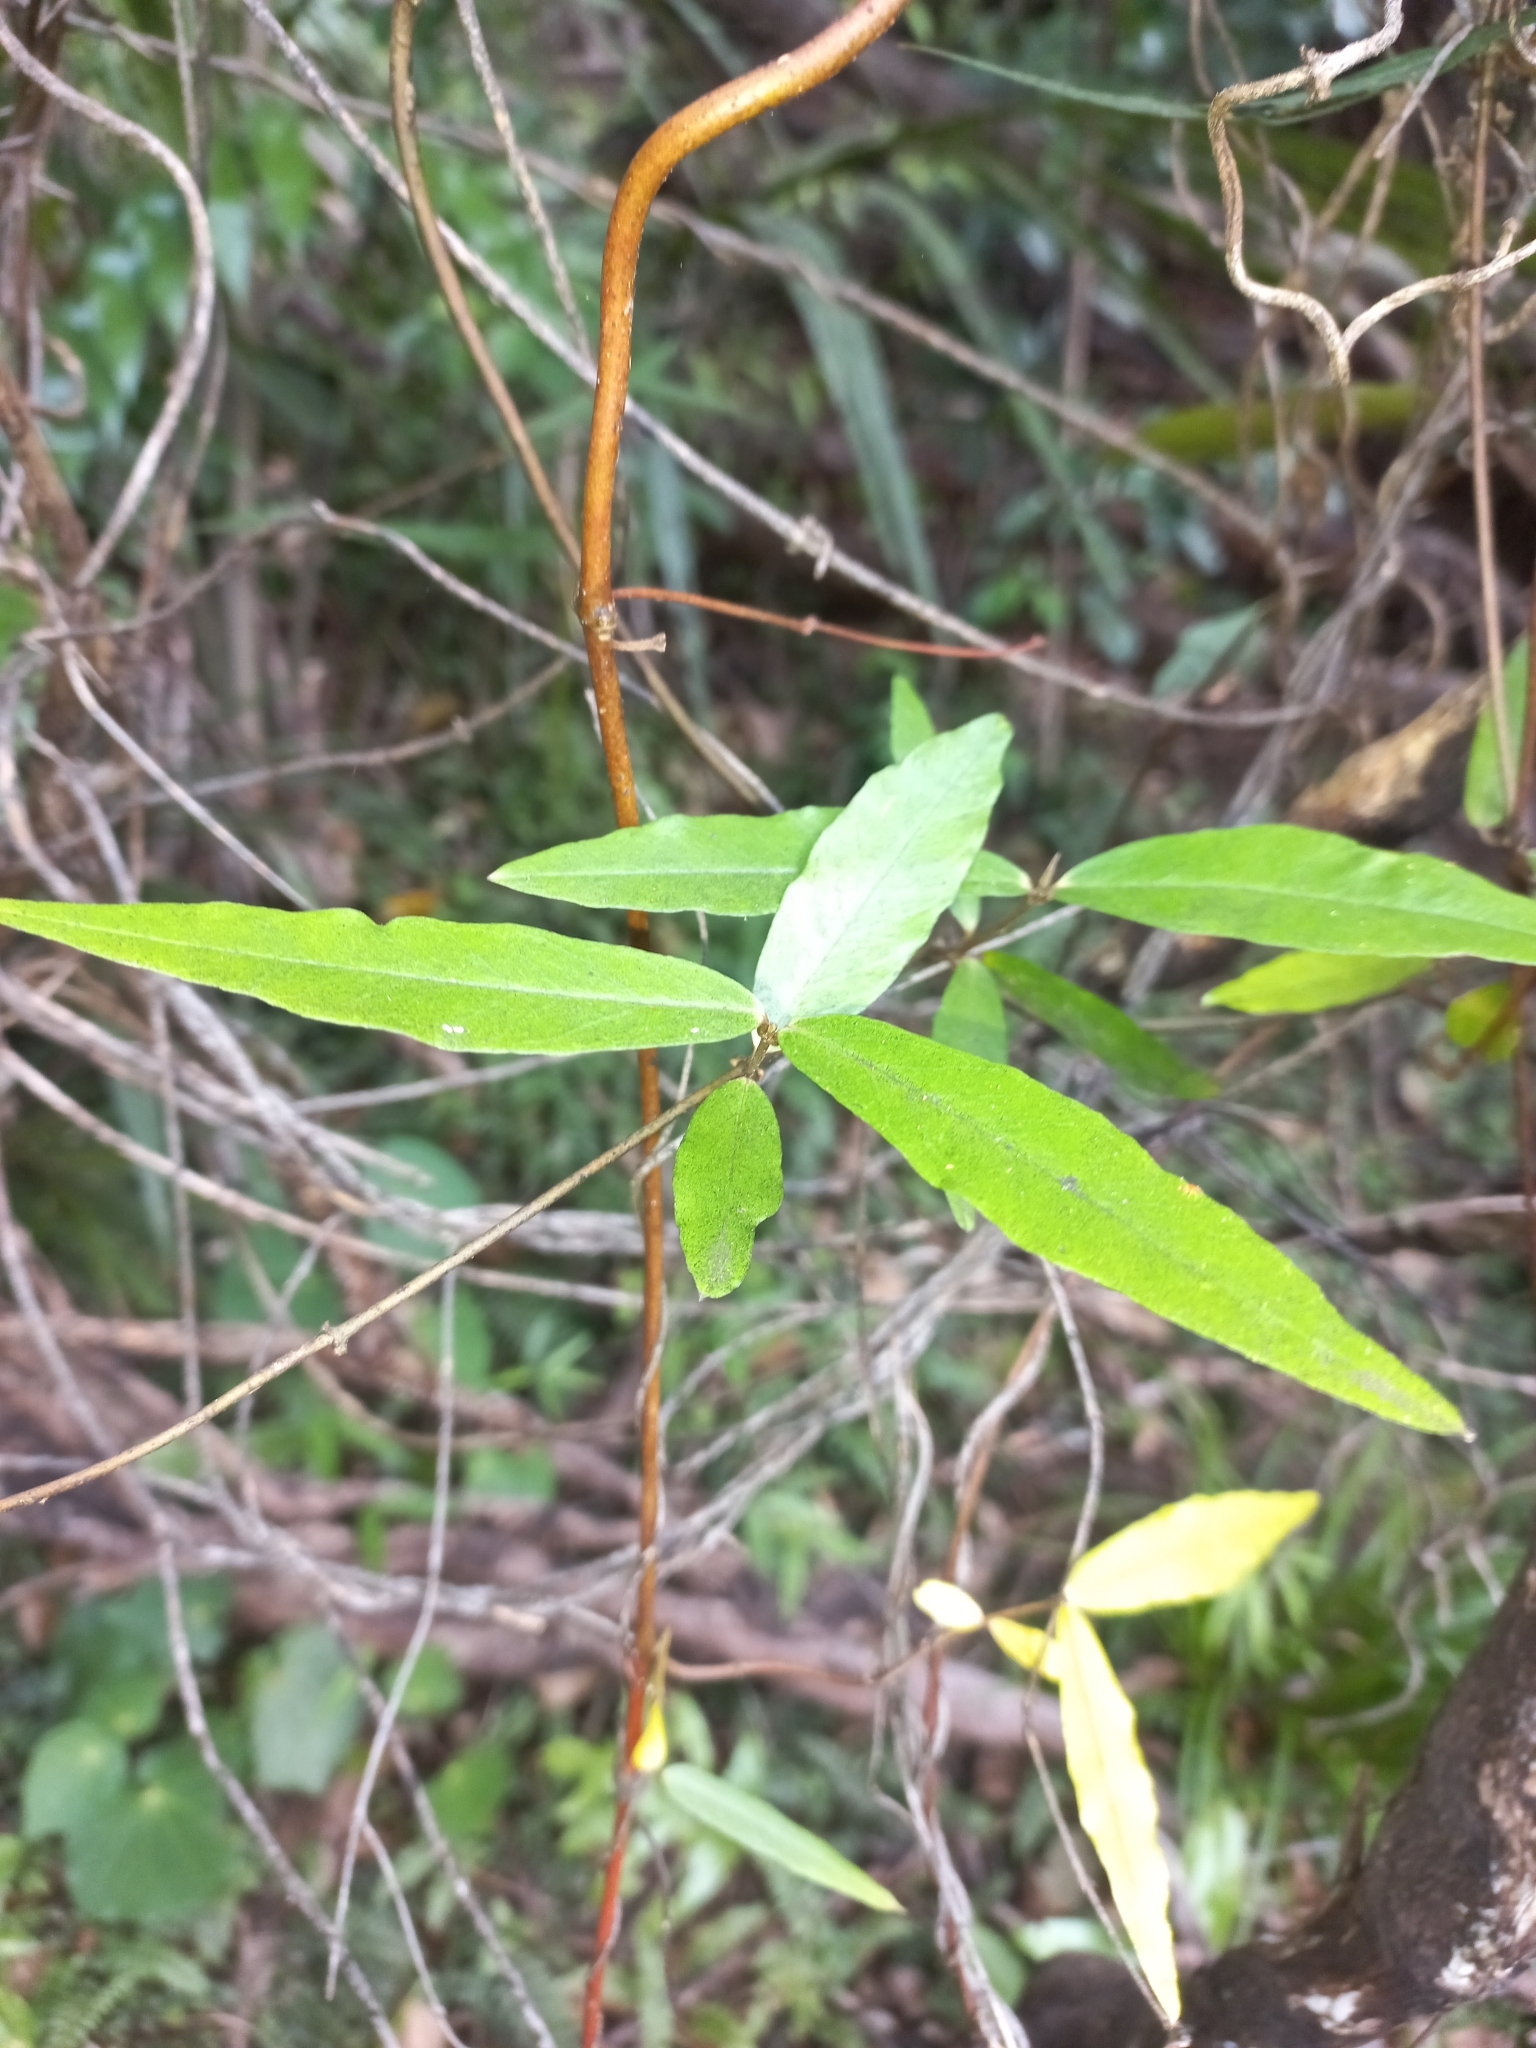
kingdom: Plantae
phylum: Tracheophyta
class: Magnoliopsida
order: Gentianales
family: Apocynaceae
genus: Parsonsia
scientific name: Parsonsia heterophylla
